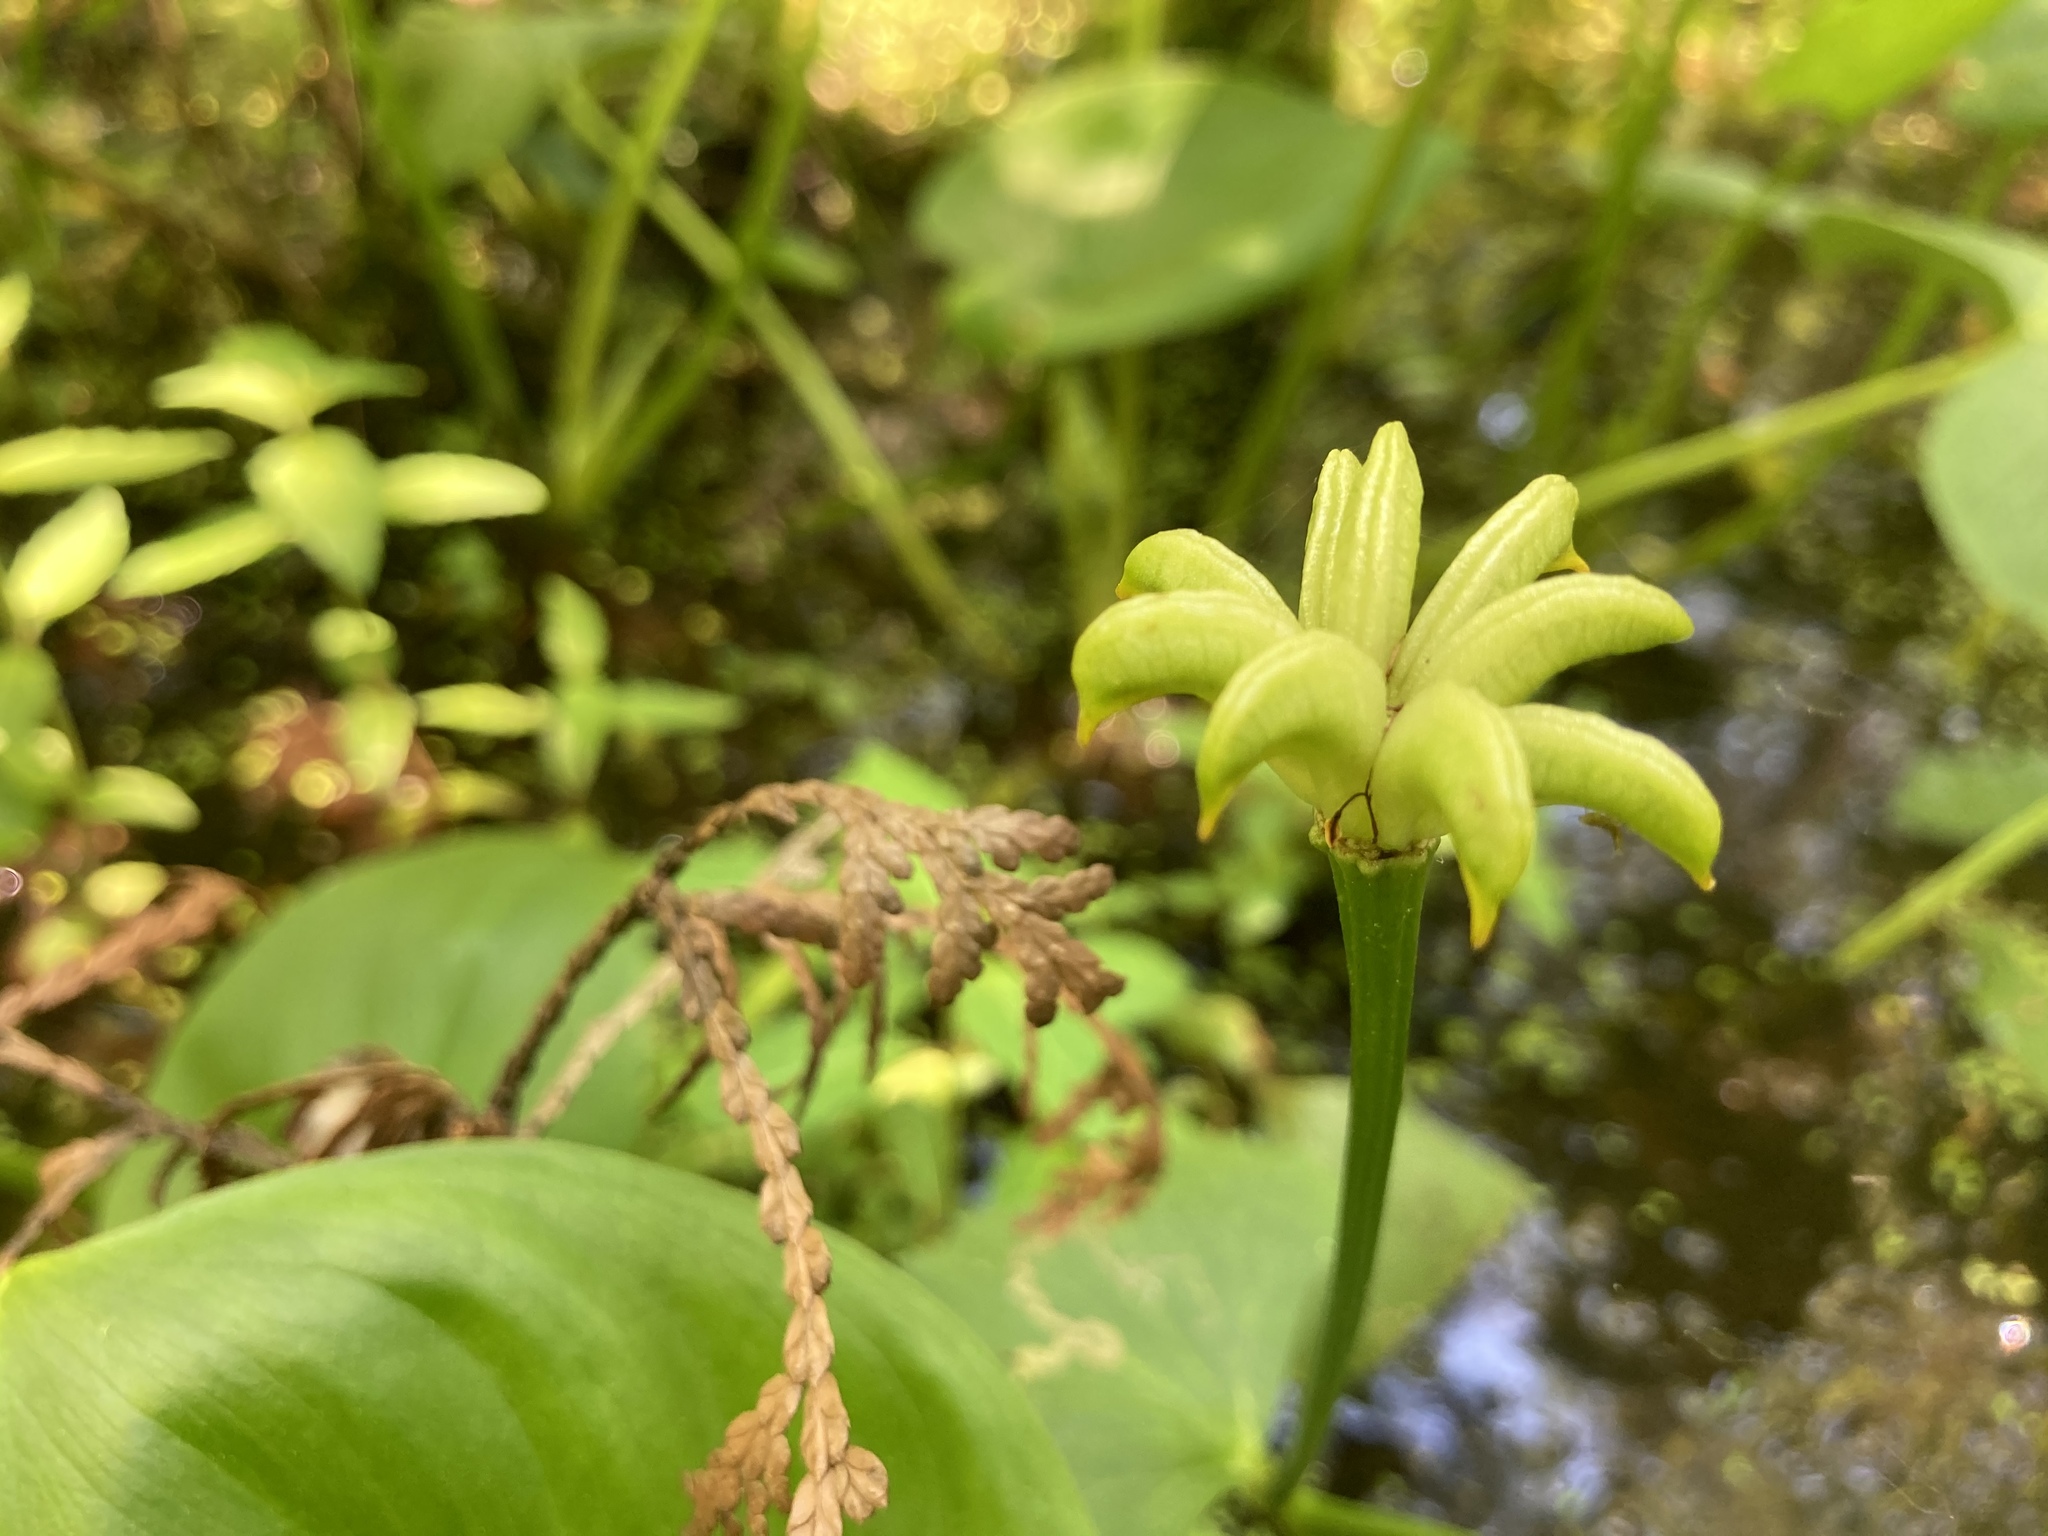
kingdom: Plantae
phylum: Tracheophyta
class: Magnoliopsida
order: Ranunculales
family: Ranunculaceae
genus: Caltha
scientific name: Caltha palustris
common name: Marsh marigold
